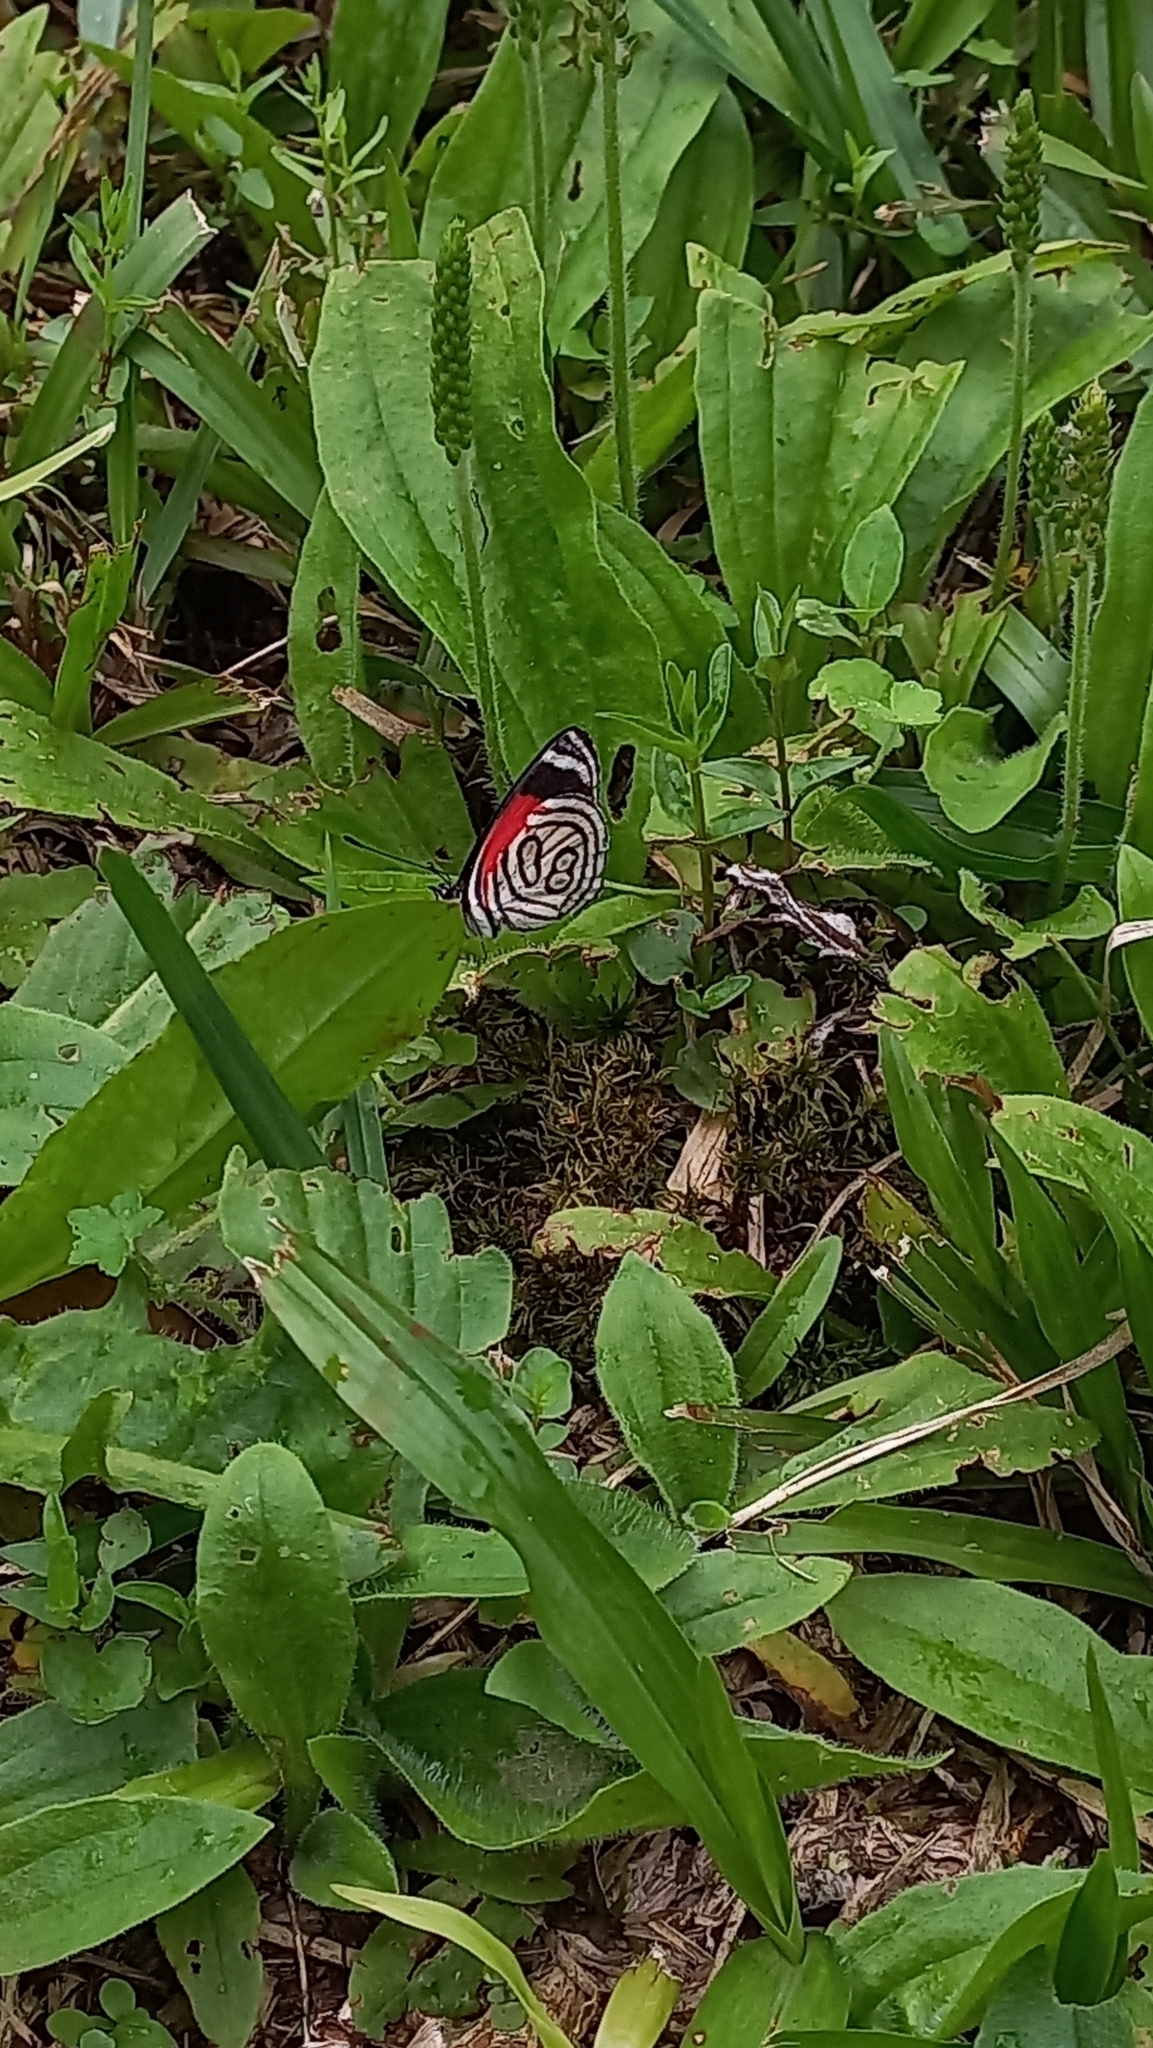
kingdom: Animalia
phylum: Arthropoda
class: Insecta
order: Lepidoptera
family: Nymphalidae
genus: Diaethria
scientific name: Diaethria candrena
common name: Number eighty
